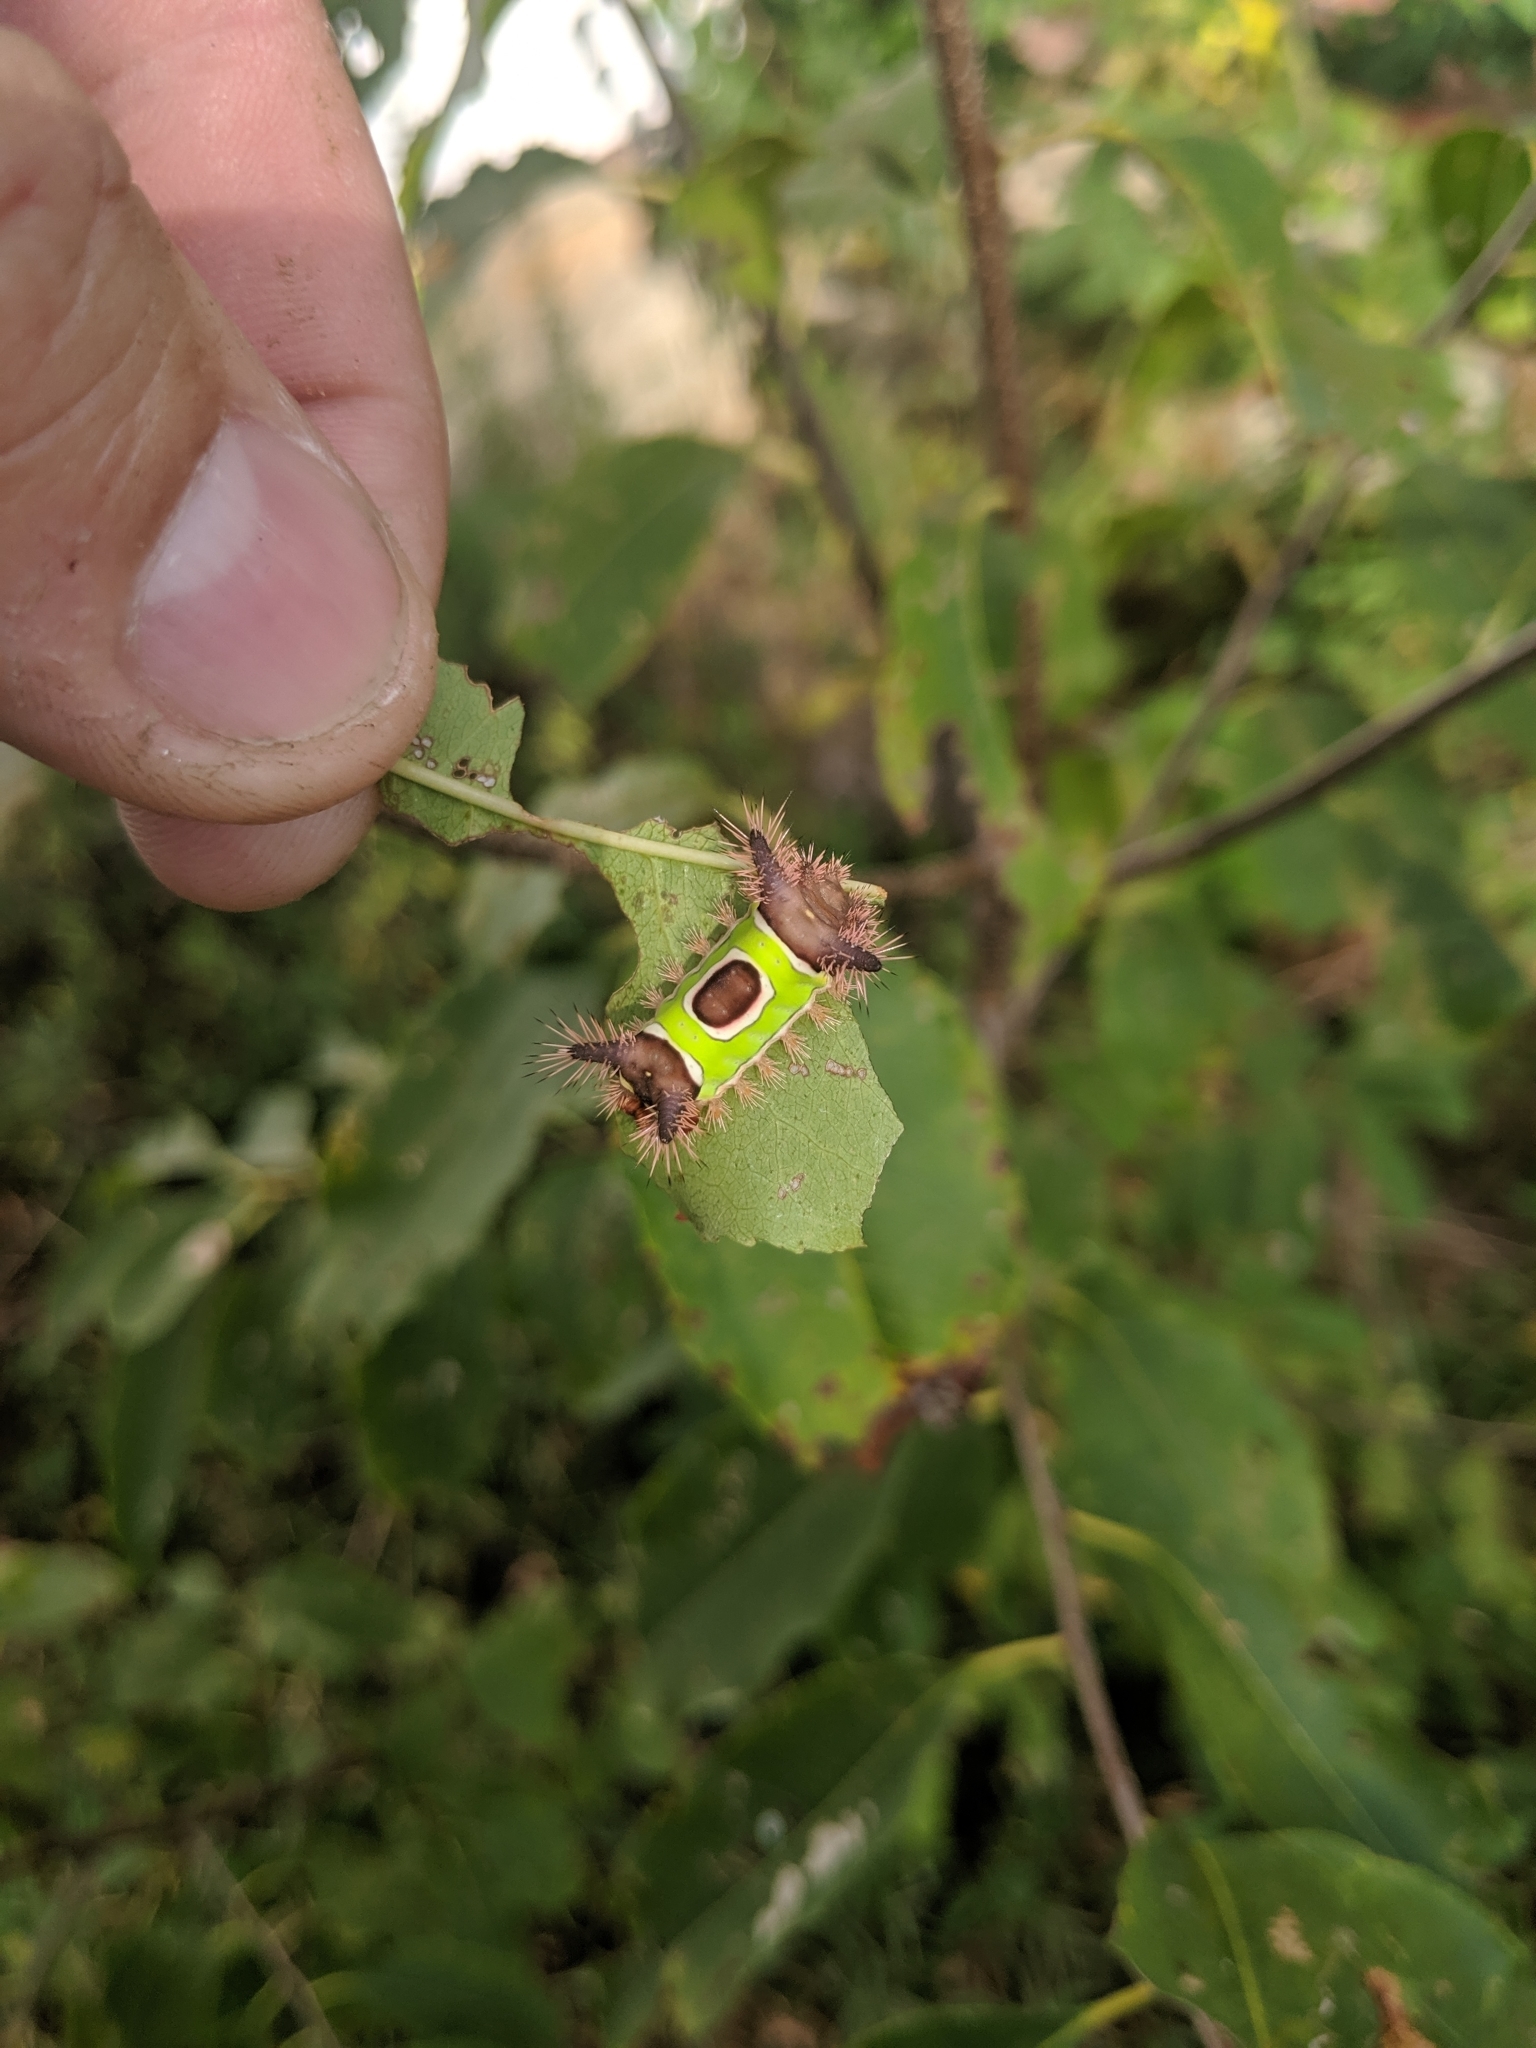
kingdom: Animalia
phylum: Arthropoda
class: Insecta
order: Lepidoptera
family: Limacodidae
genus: Acharia
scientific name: Acharia stimulea
